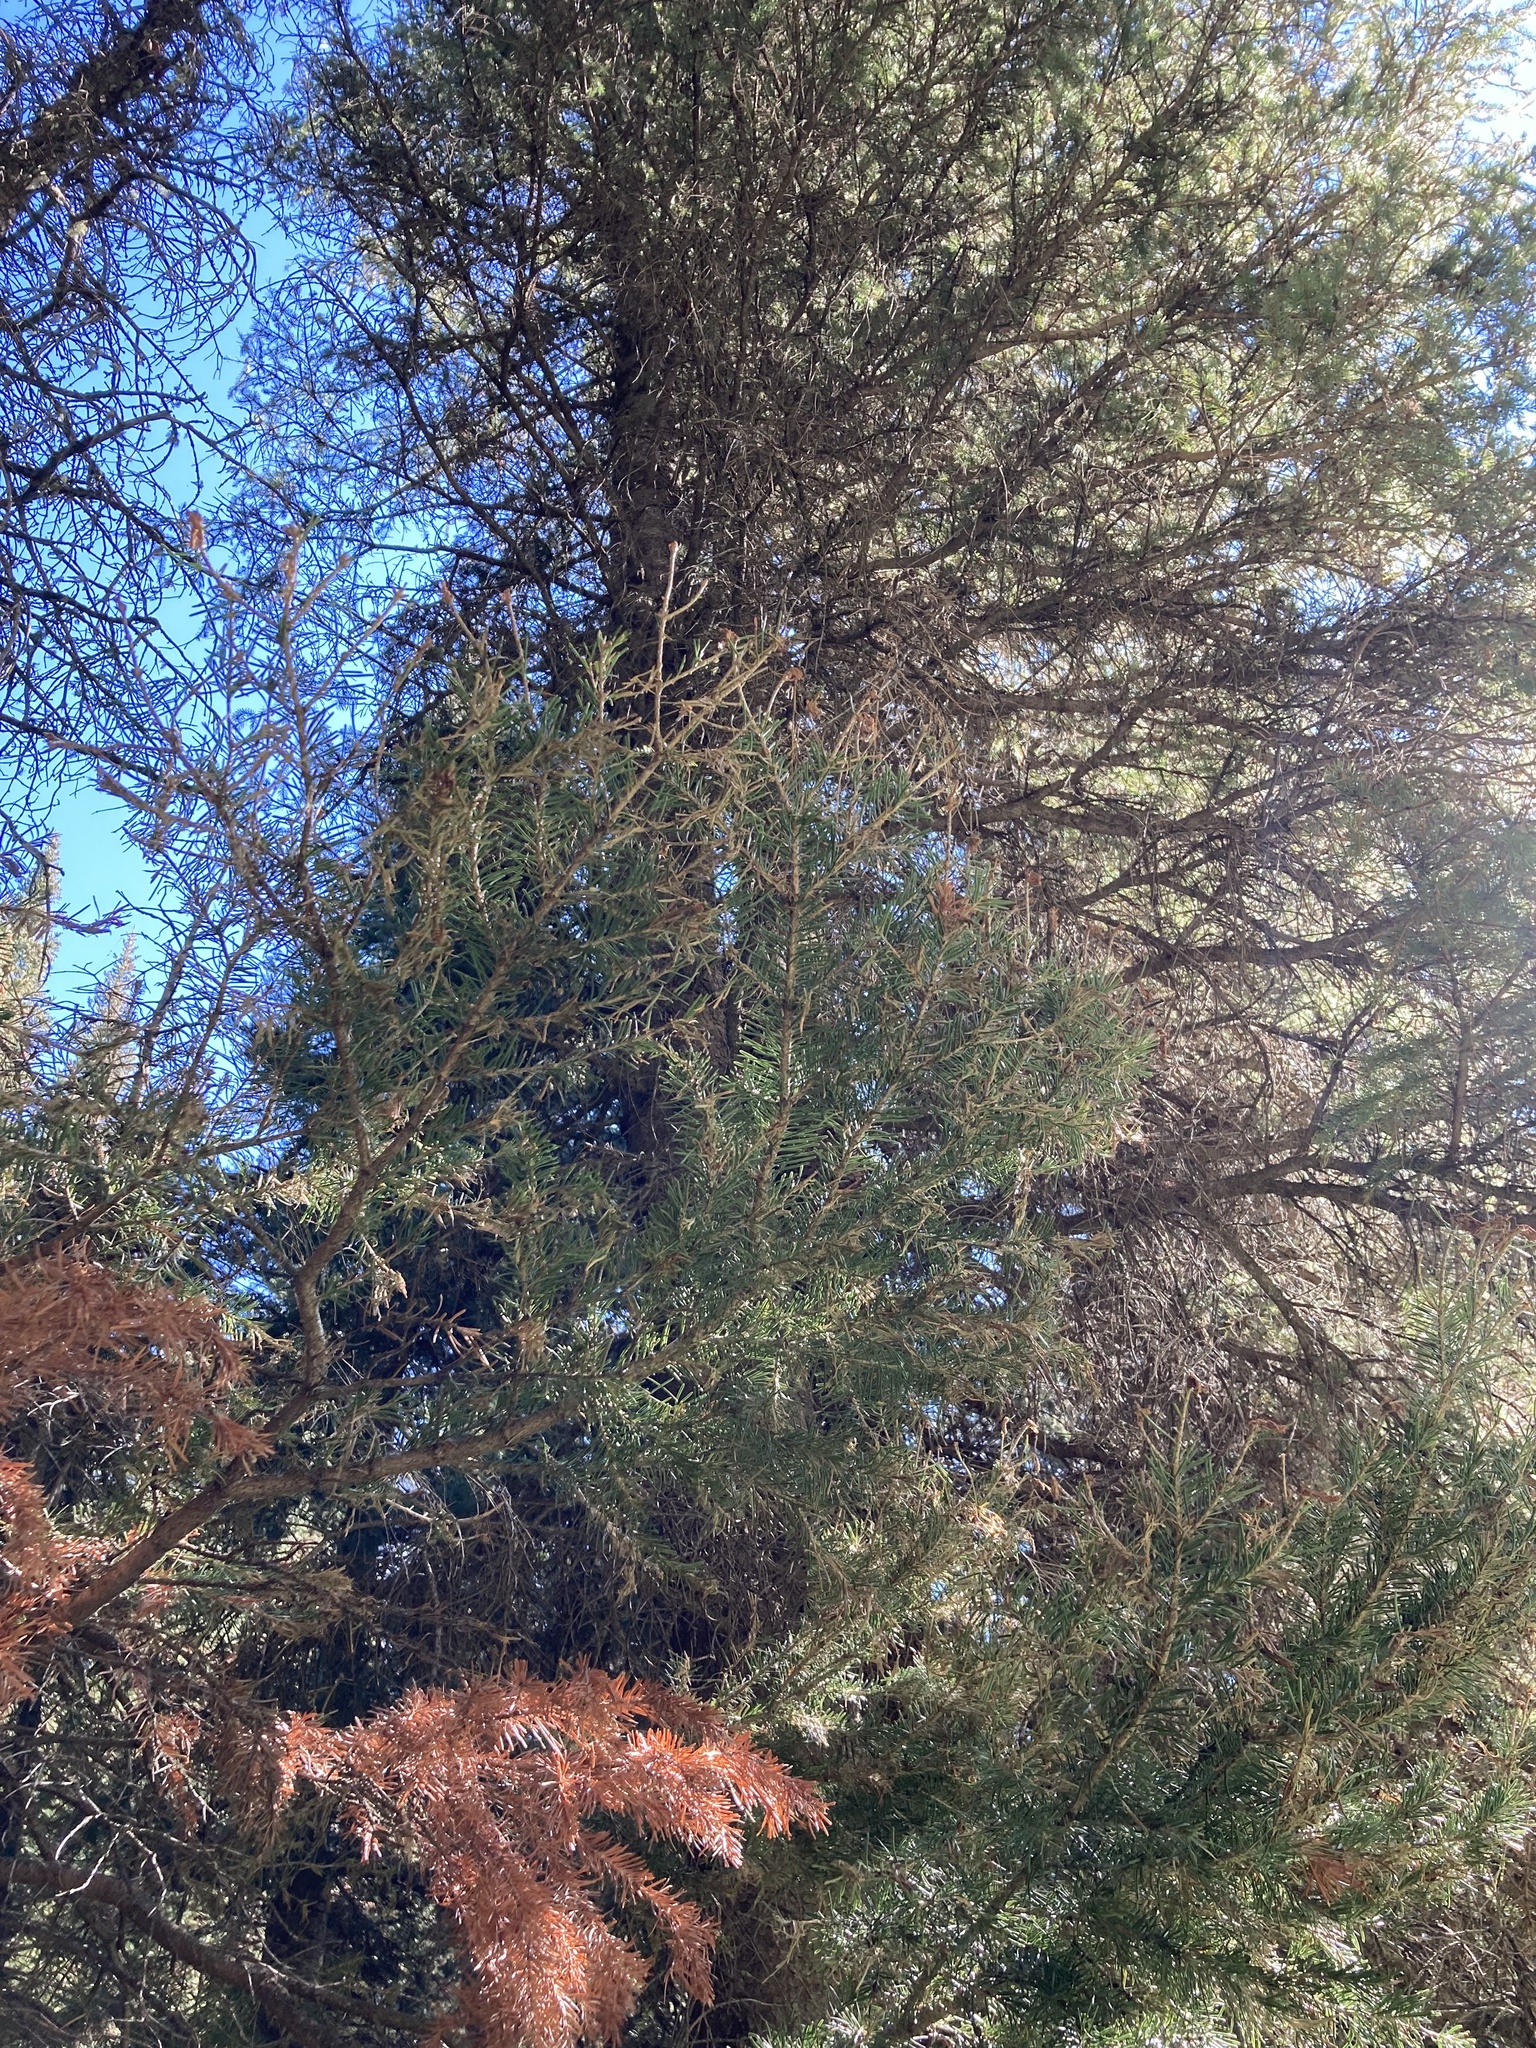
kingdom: Plantae
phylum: Tracheophyta
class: Pinopsida
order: Pinales
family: Pinaceae
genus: Abies
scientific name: Abies lasiocarpa
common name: Subalpine fir
